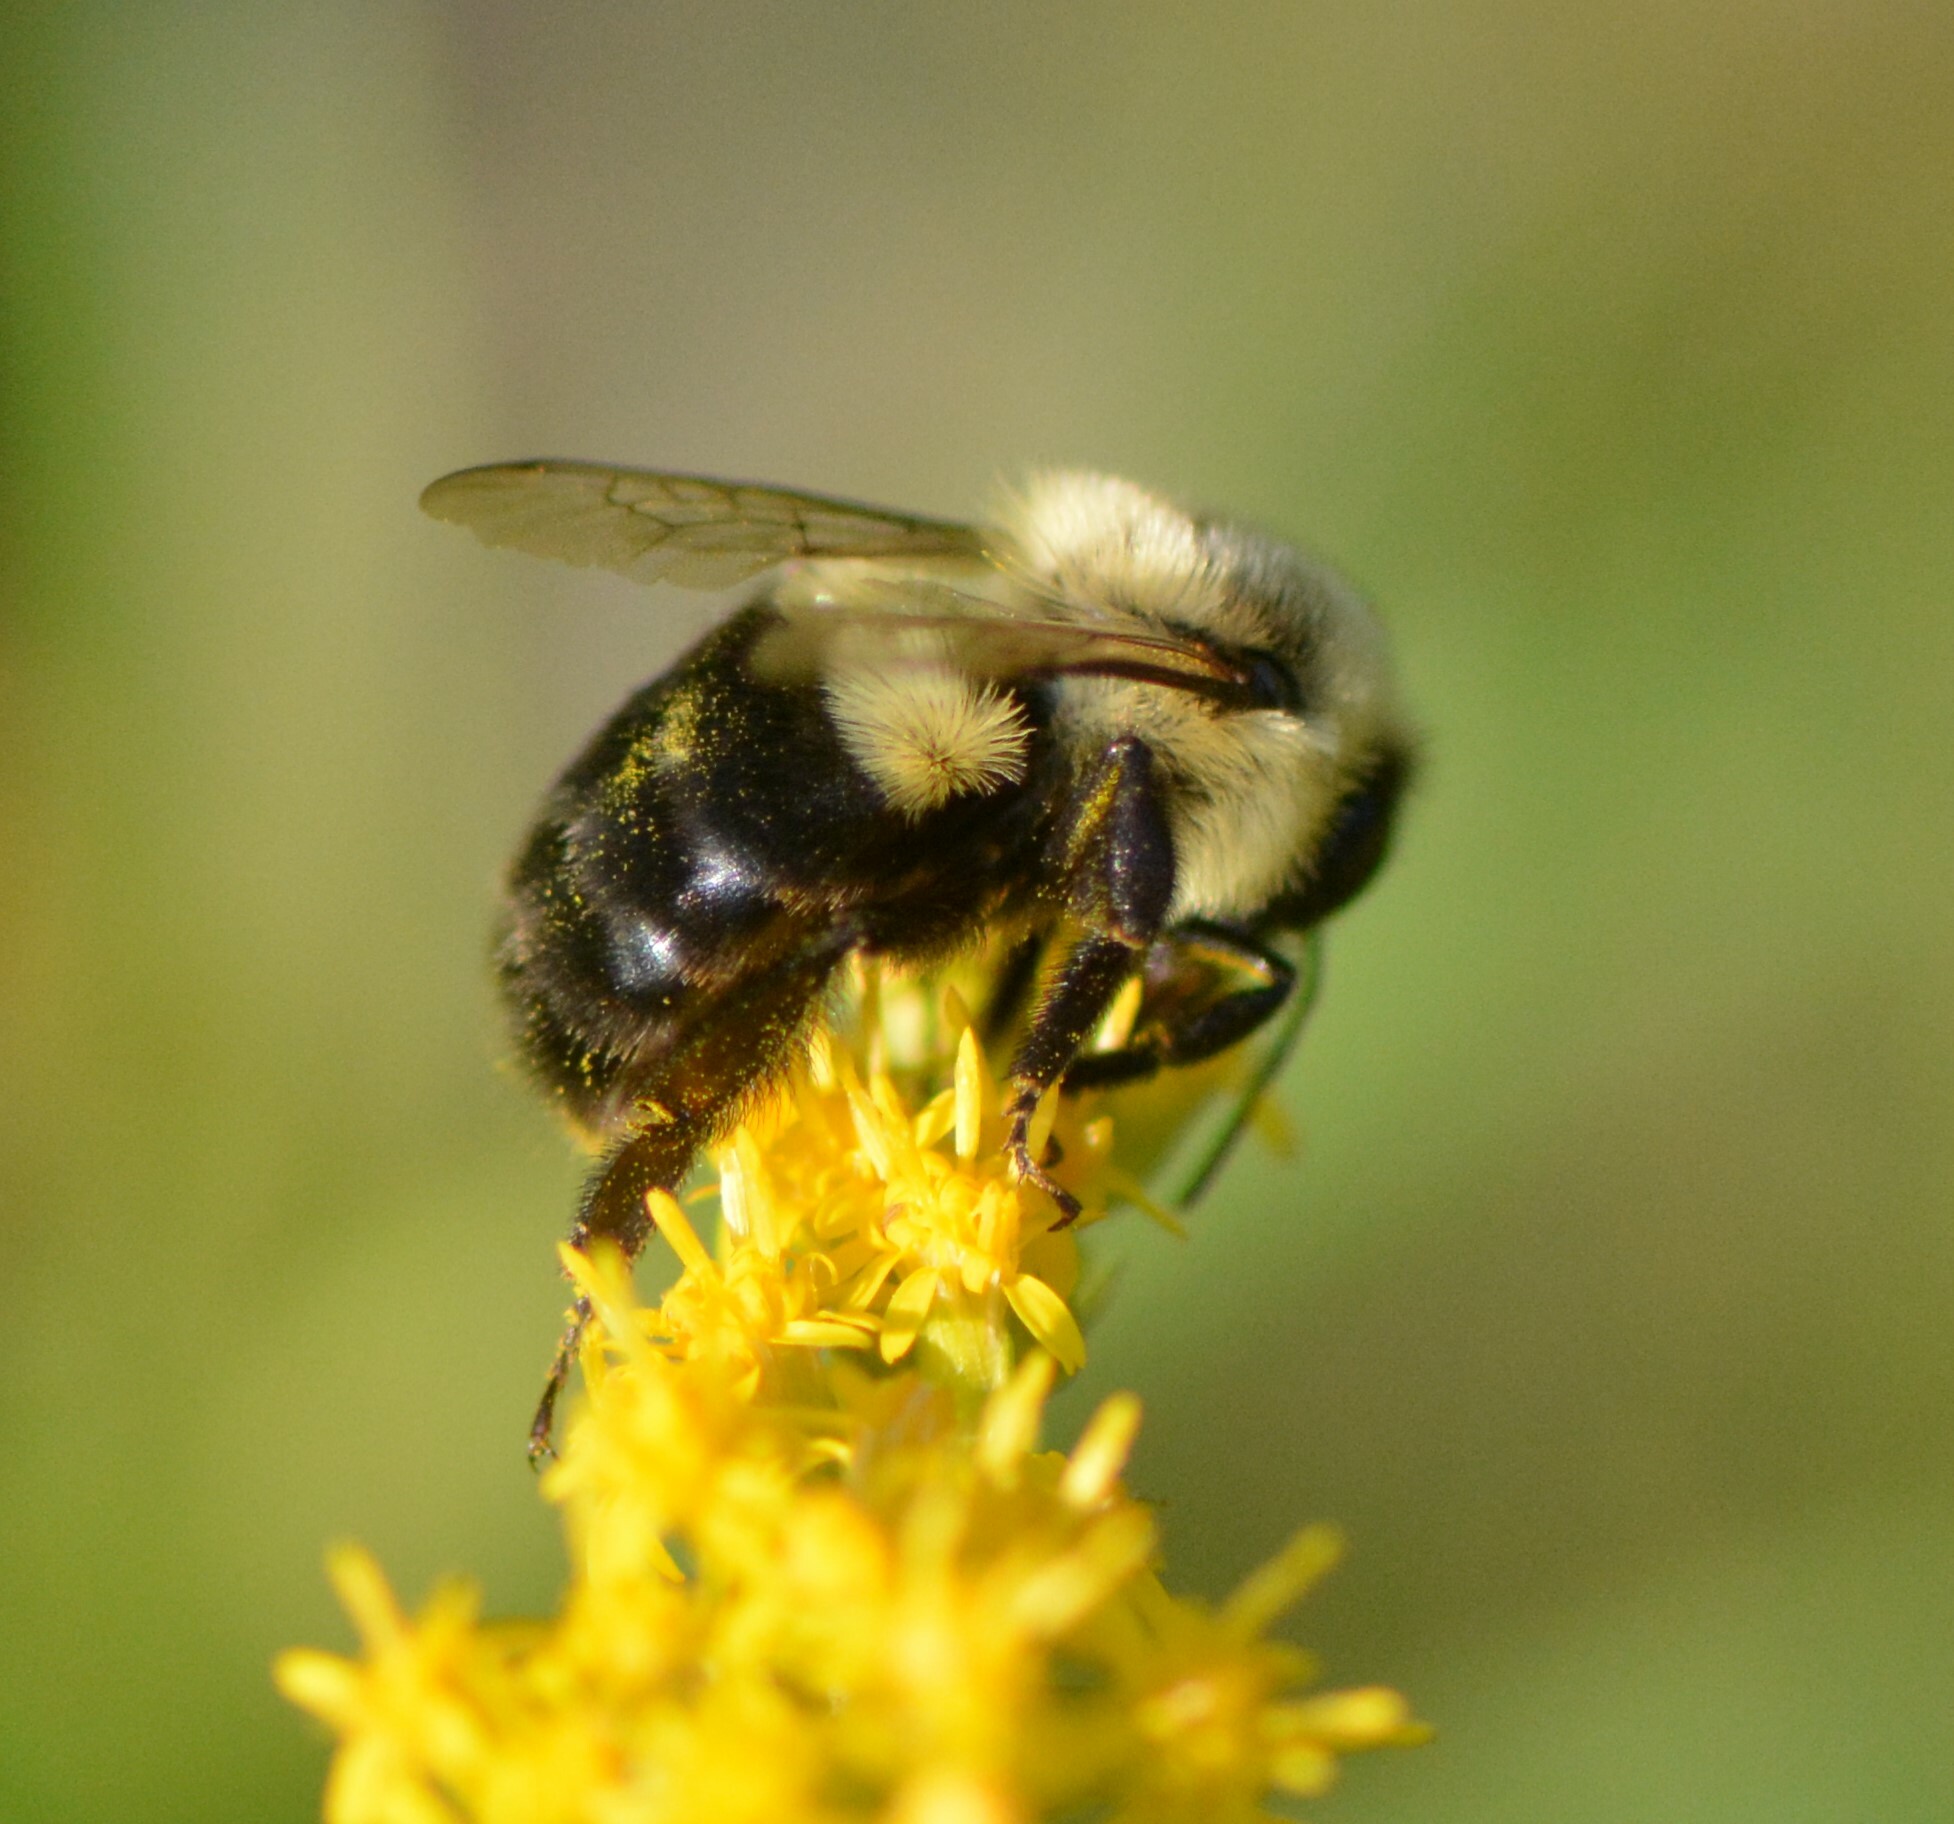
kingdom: Animalia
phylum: Arthropoda
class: Insecta
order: Hymenoptera
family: Apidae
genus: Bombus
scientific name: Bombus impatiens
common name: Common eastern bumble bee
